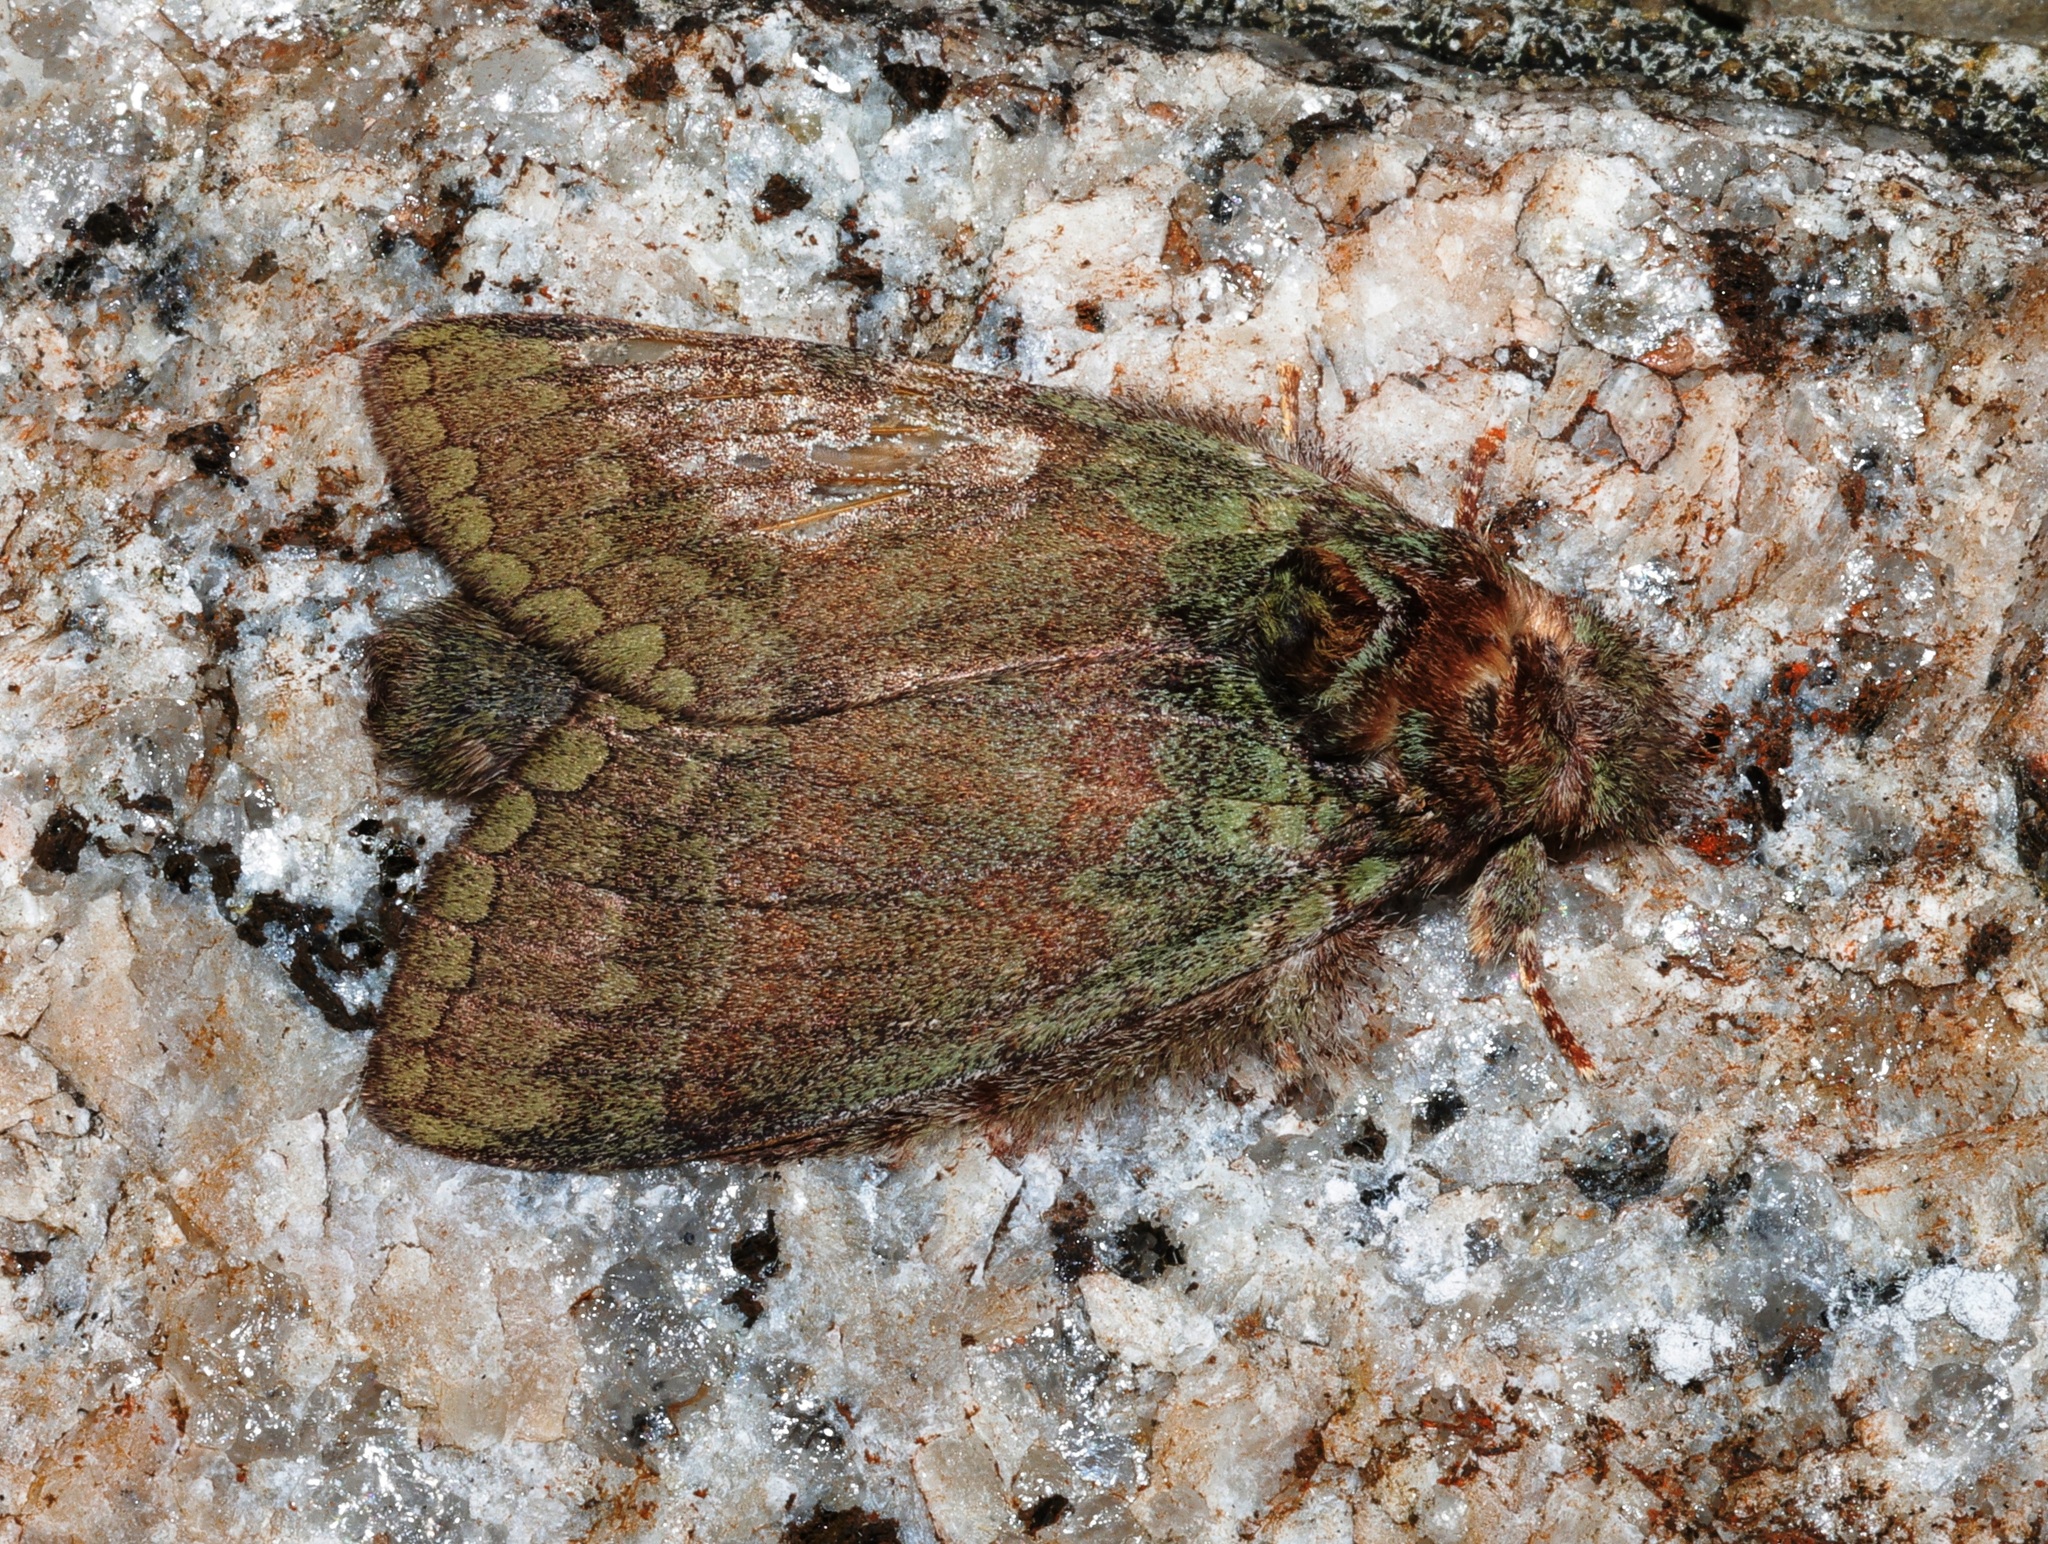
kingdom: Animalia
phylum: Arthropoda
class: Insecta
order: Lepidoptera
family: Notodontidae
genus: Netria
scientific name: Netria viridescens
